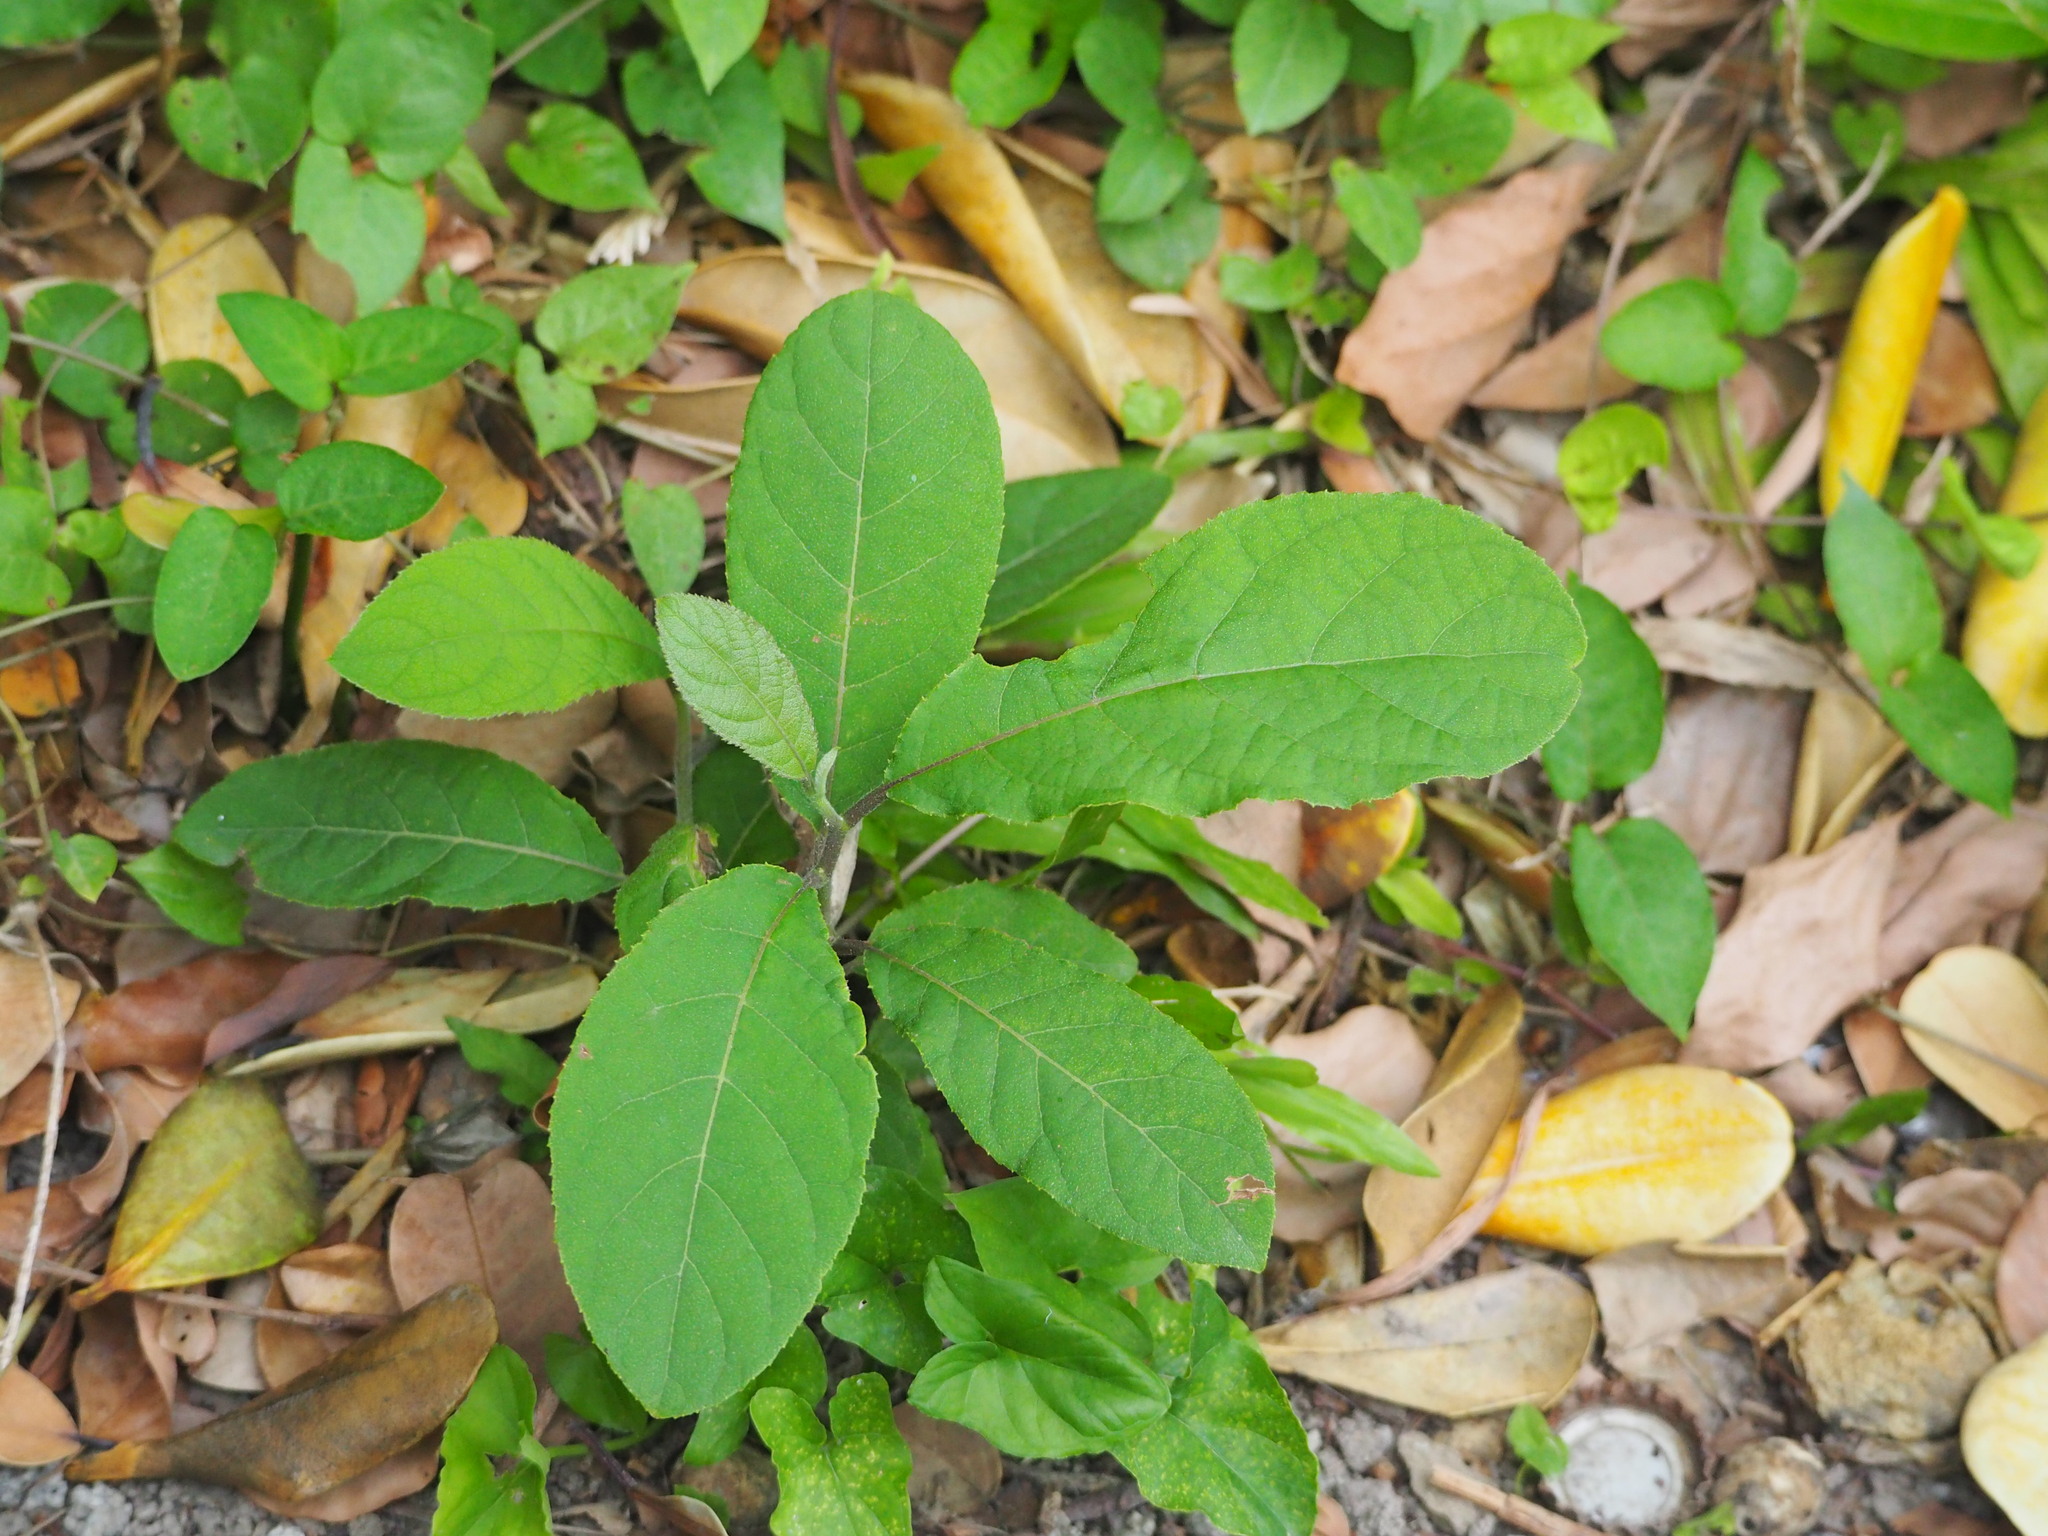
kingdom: Plantae
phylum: Tracheophyta
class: Magnoliopsida
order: Boraginales
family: Ehretiaceae
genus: Ehretia
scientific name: Ehretia acuminata
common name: Kodo wood
